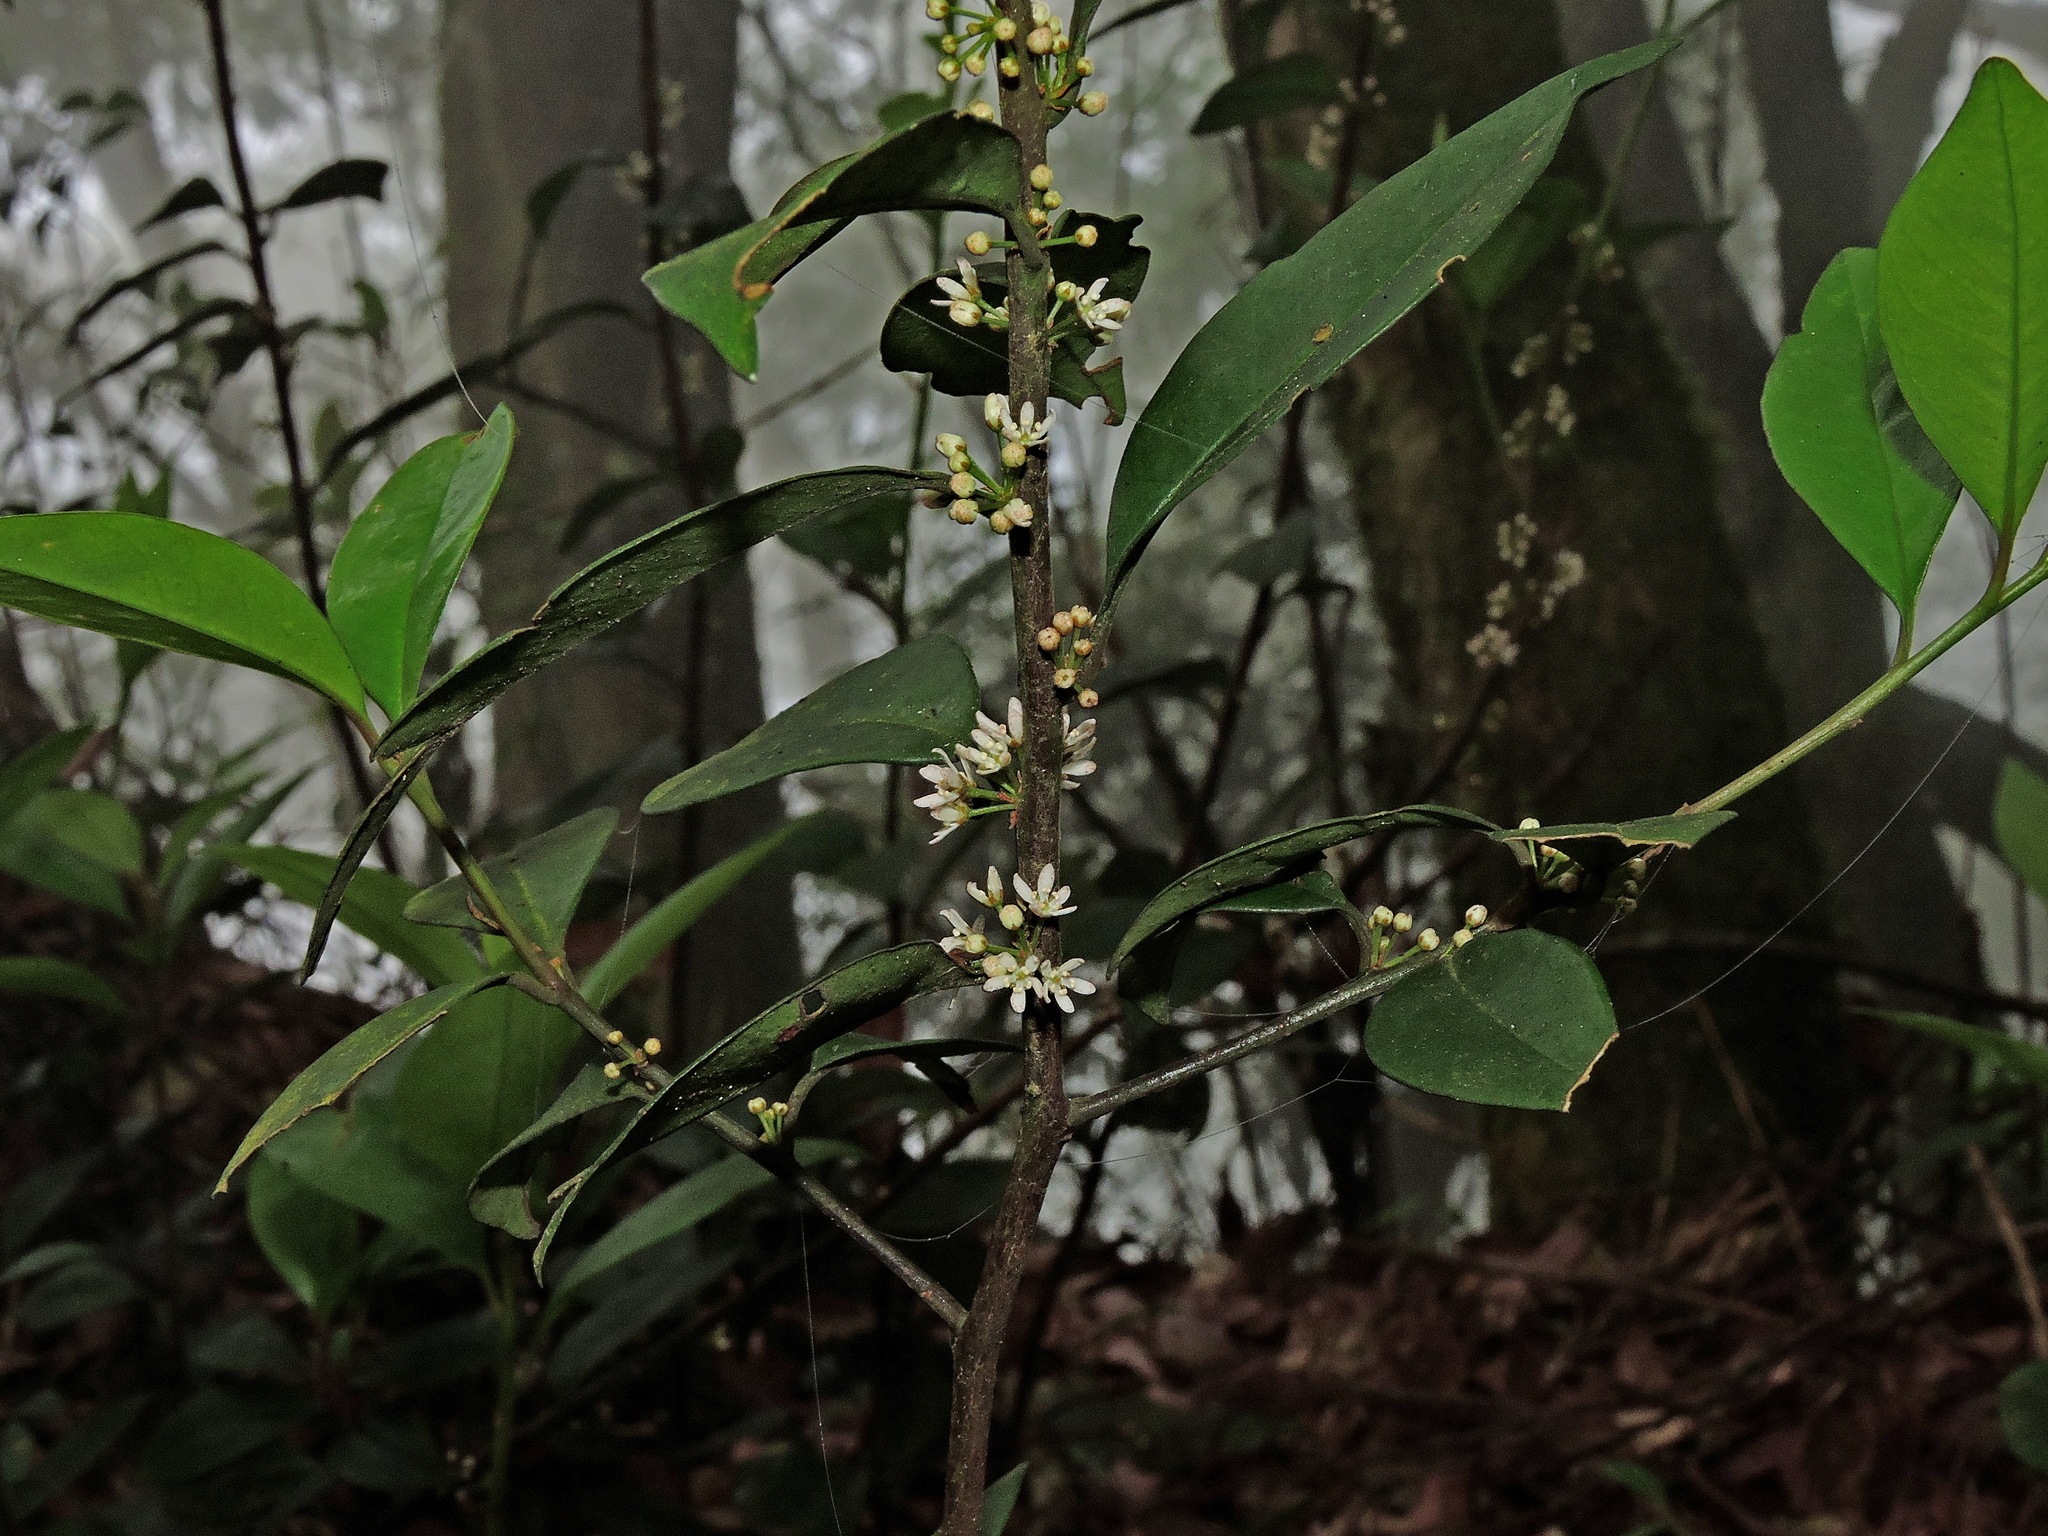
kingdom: Plantae
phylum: Tracheophyta
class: Magnoliopsida
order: Ericales
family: Primulaceae
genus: Myrsine
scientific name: Myrsine stolonifera
